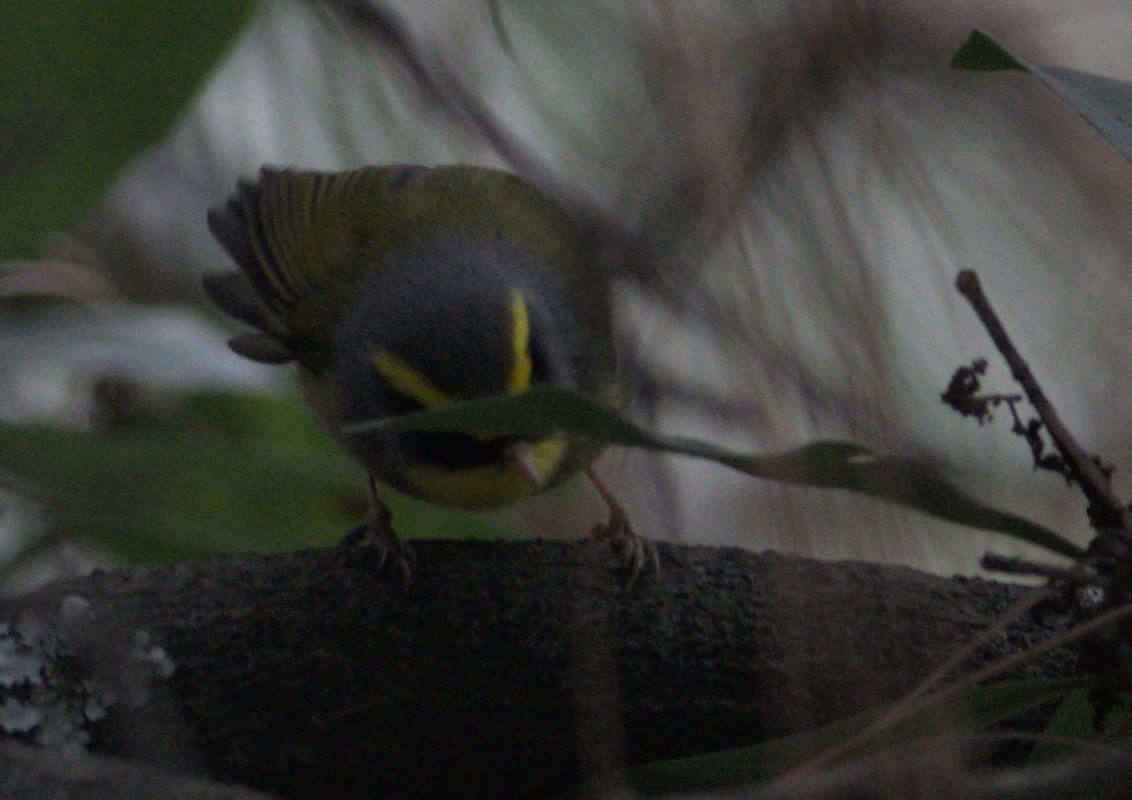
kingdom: Animalia
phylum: Chordata
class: Aves
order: Passeriformes
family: Cettiidae
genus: Abroscopus
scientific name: Abroscopus schisticeps
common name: Black-faced warbler
